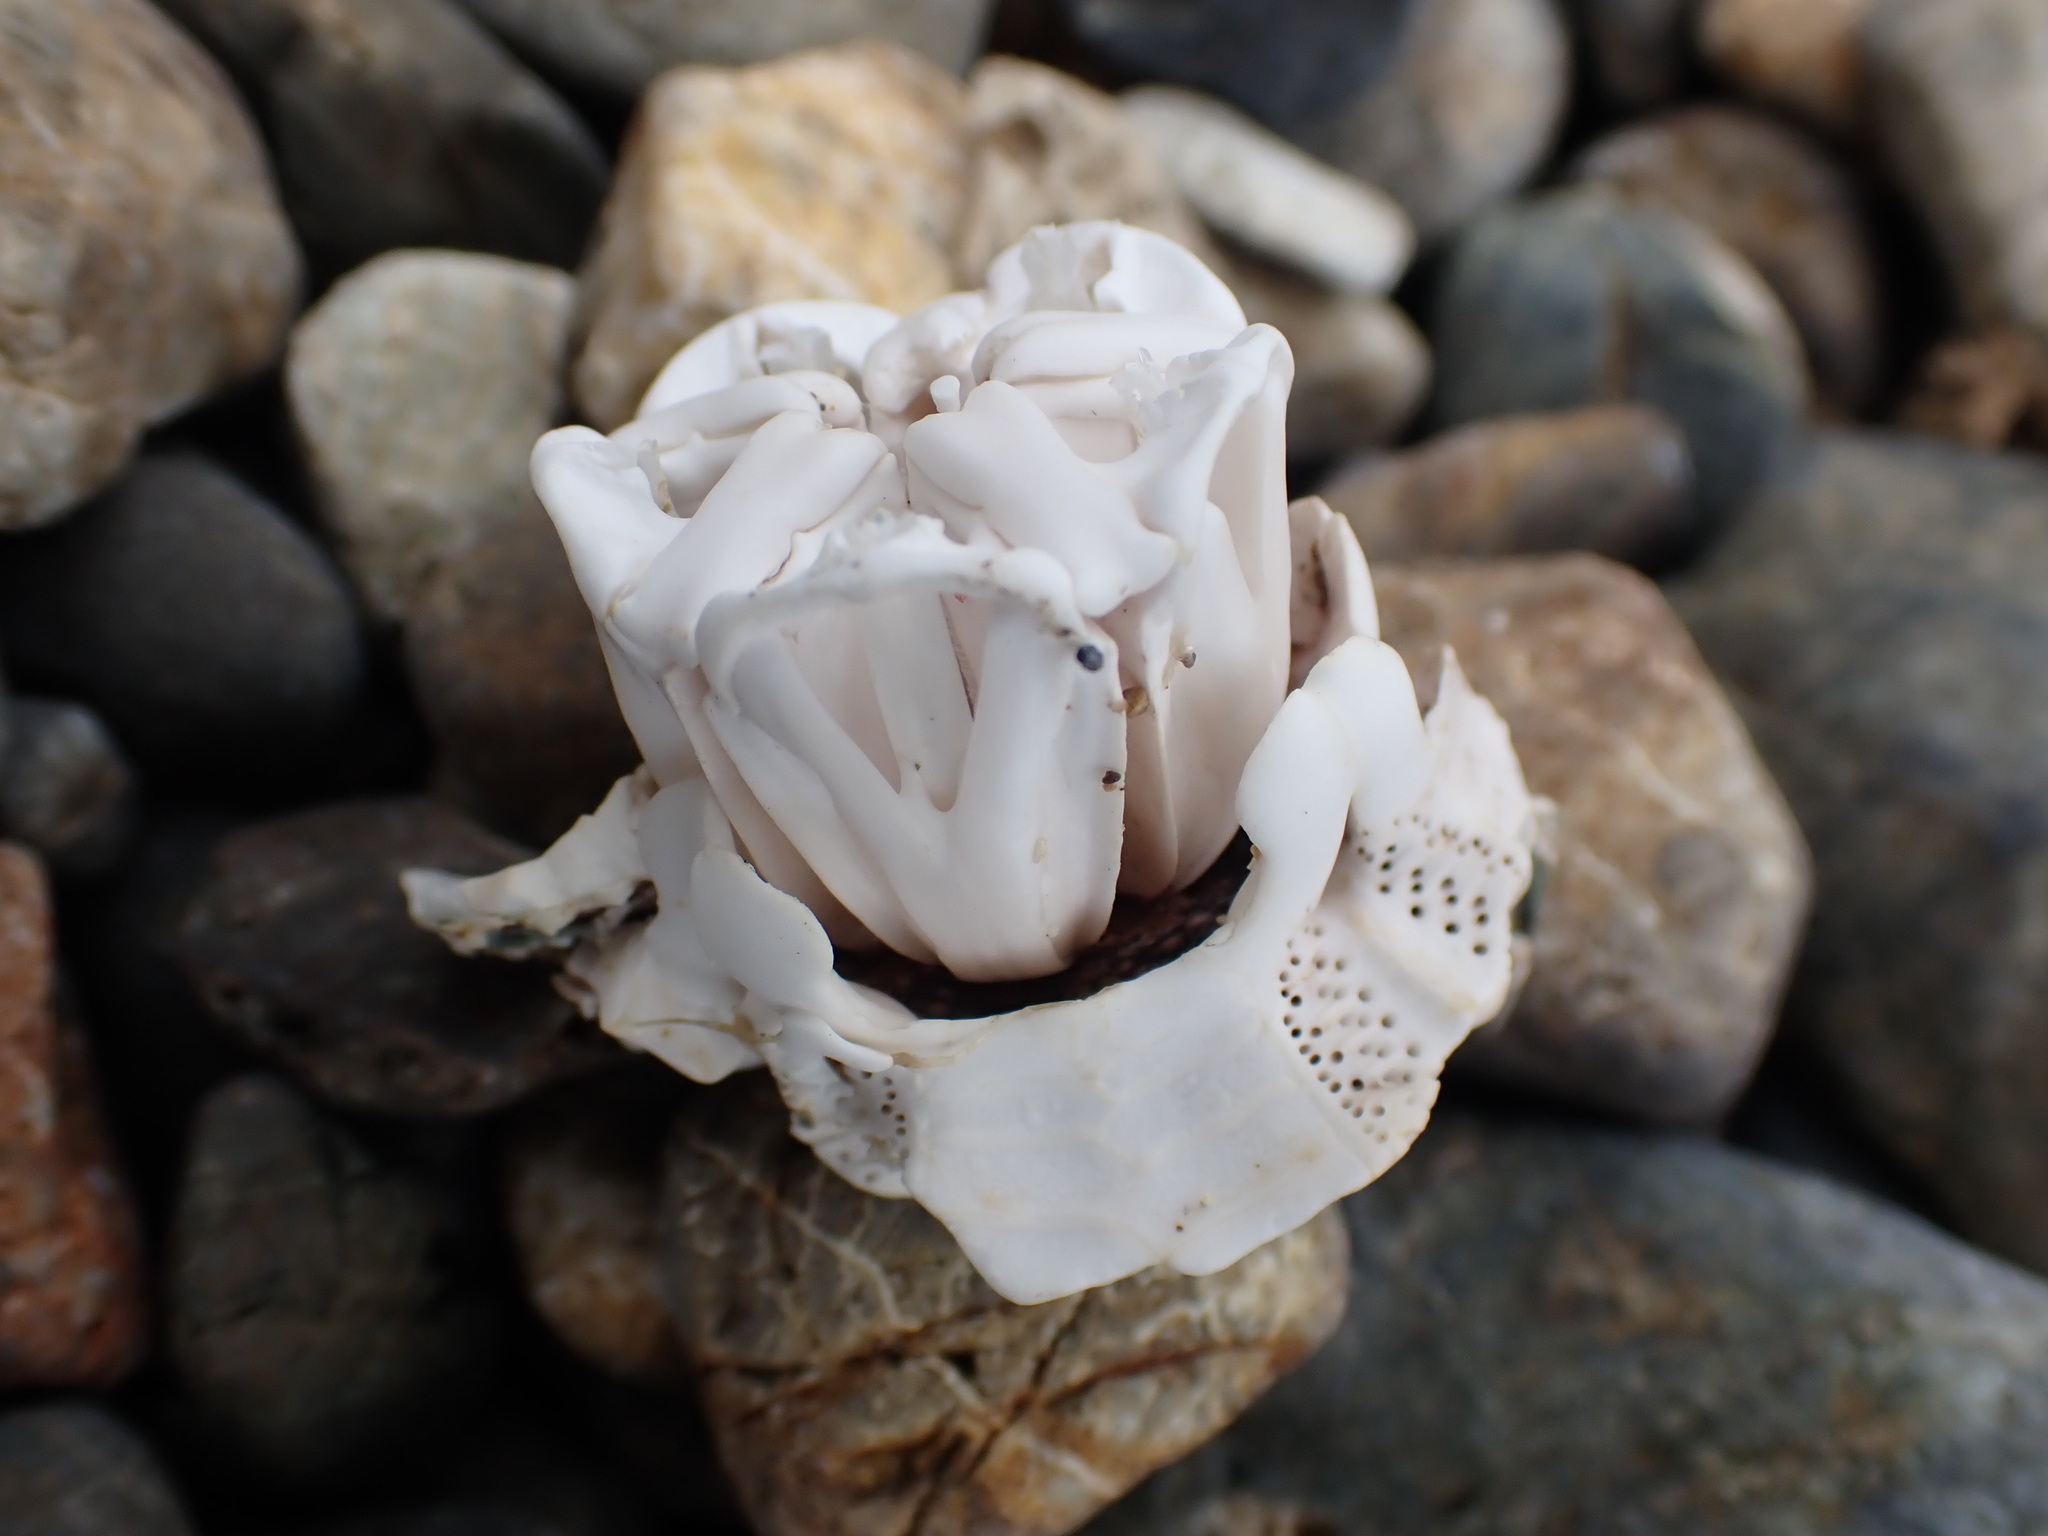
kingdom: Animalia
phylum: Echinodermata
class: Echinoidea
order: Camarodonta
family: Echinometridae
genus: Evechinus
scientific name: Evechinus chloroticus
